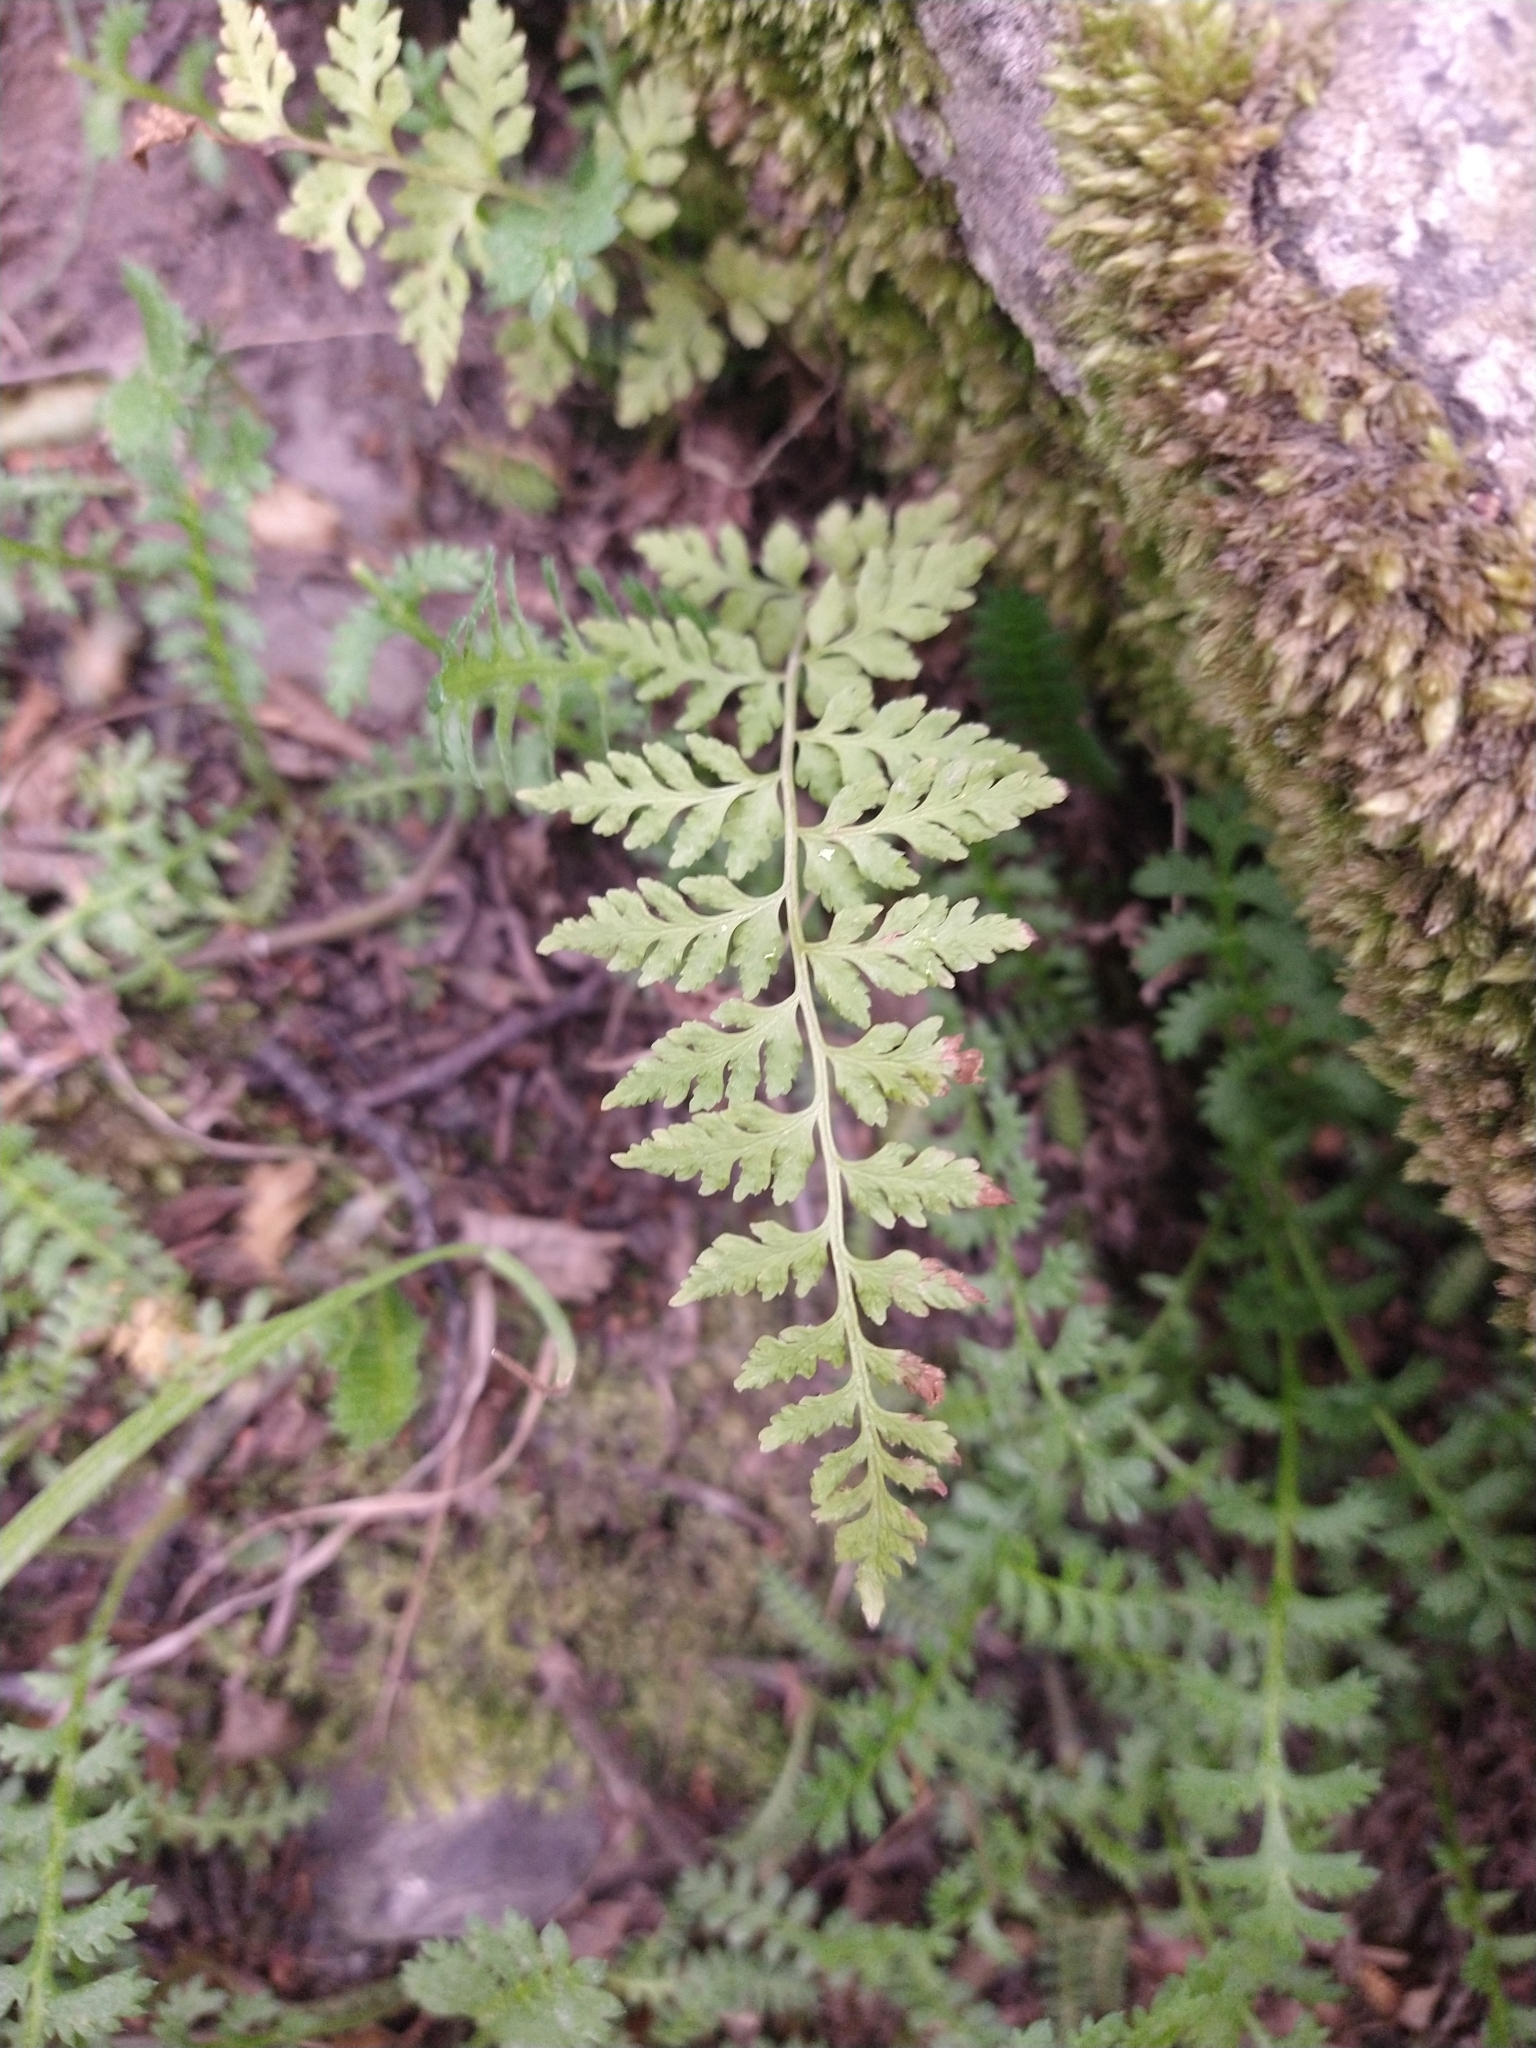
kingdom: Plantae
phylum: Tracheophyta
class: Polypodiopsida
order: Polypodiales
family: Cystopteridaceae
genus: Cystopteris
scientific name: Cystopteris fragilis
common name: Brittle bladder fern
